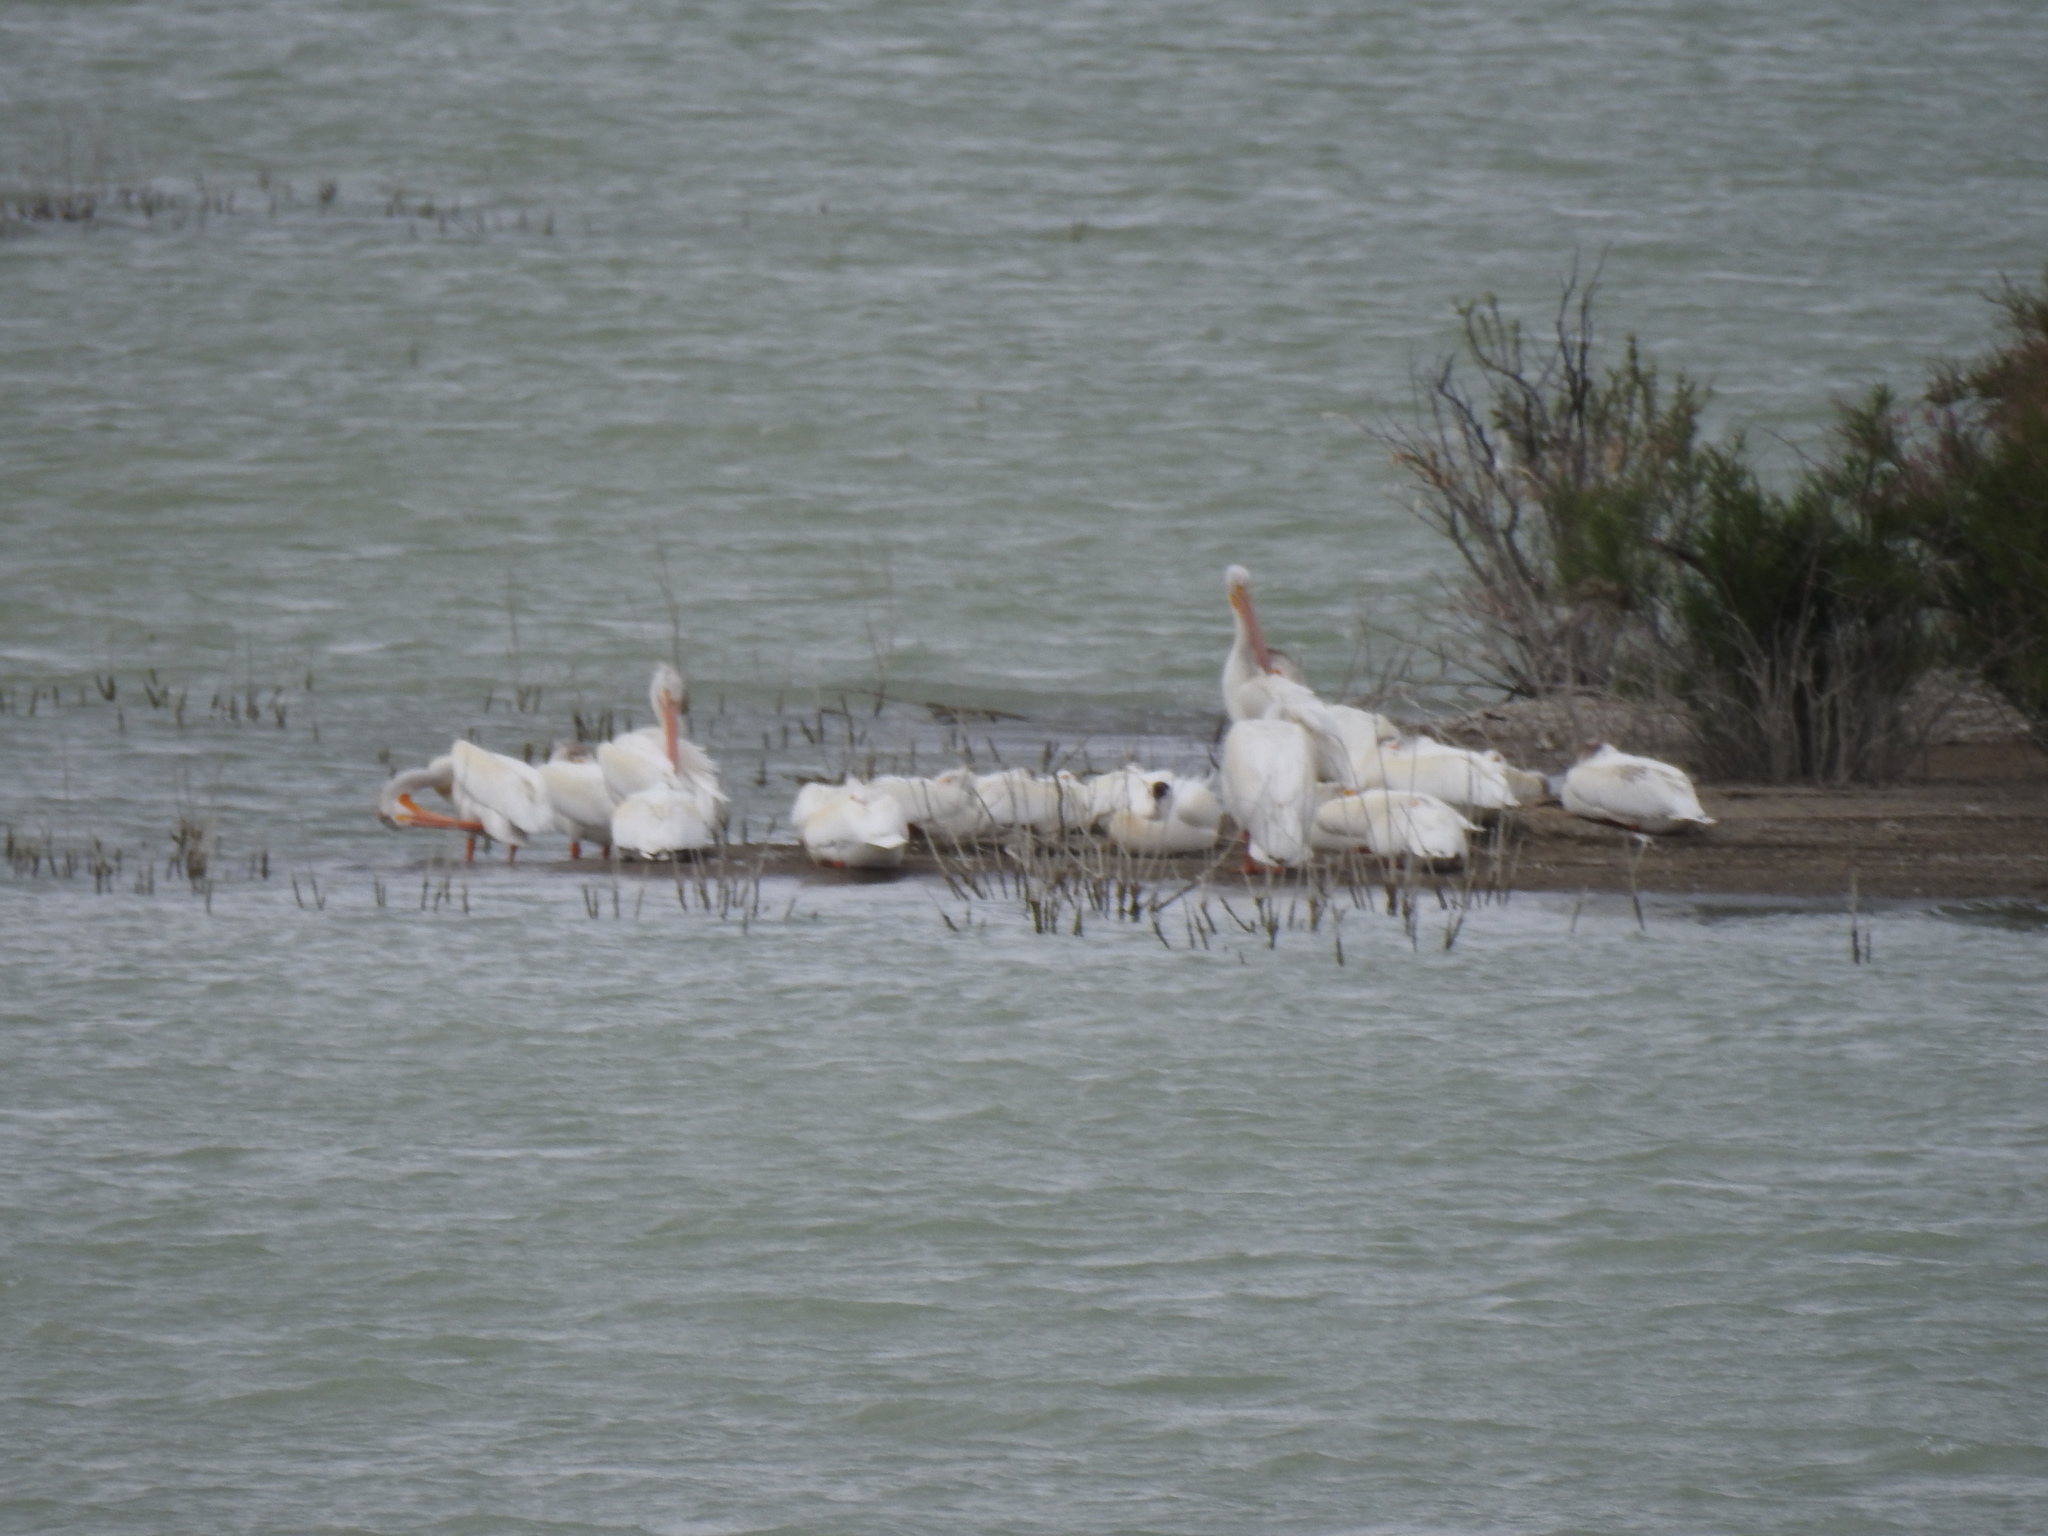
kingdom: Animalia
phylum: Chordata
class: Aves
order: Pelecaniformes
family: Pelecanidae
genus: Pelecanus
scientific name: Pelecanus erythrorhynchos
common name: American white pelican
